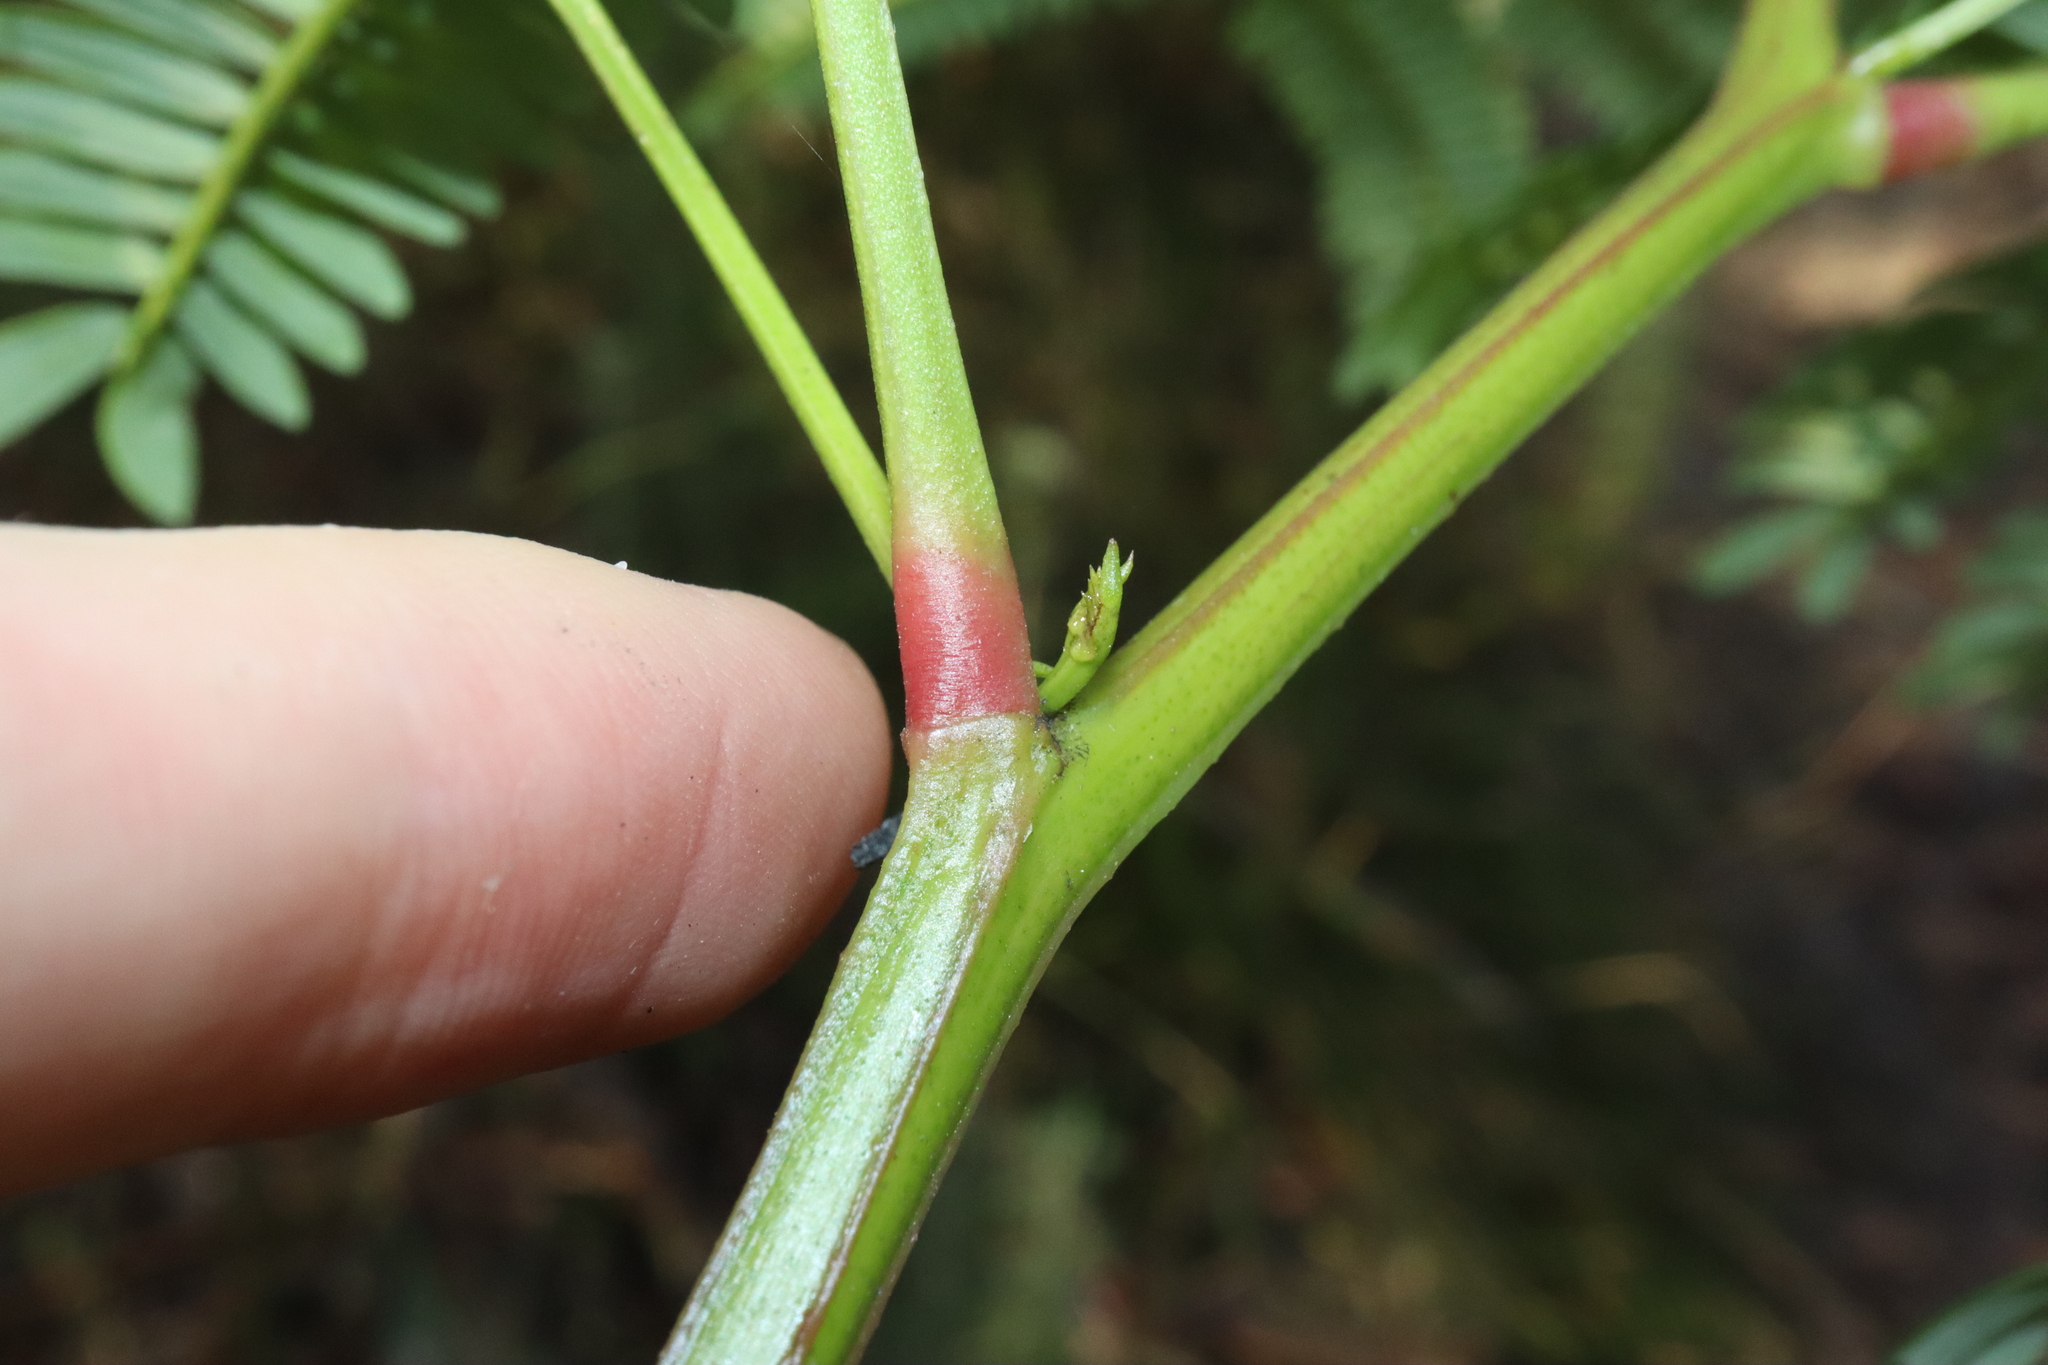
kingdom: Plantae
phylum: Tracheophyta
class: Magnoliopsida
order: Fabales
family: Fabaceae
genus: Acacia
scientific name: Acacia terminalis
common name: Cedar wattle
